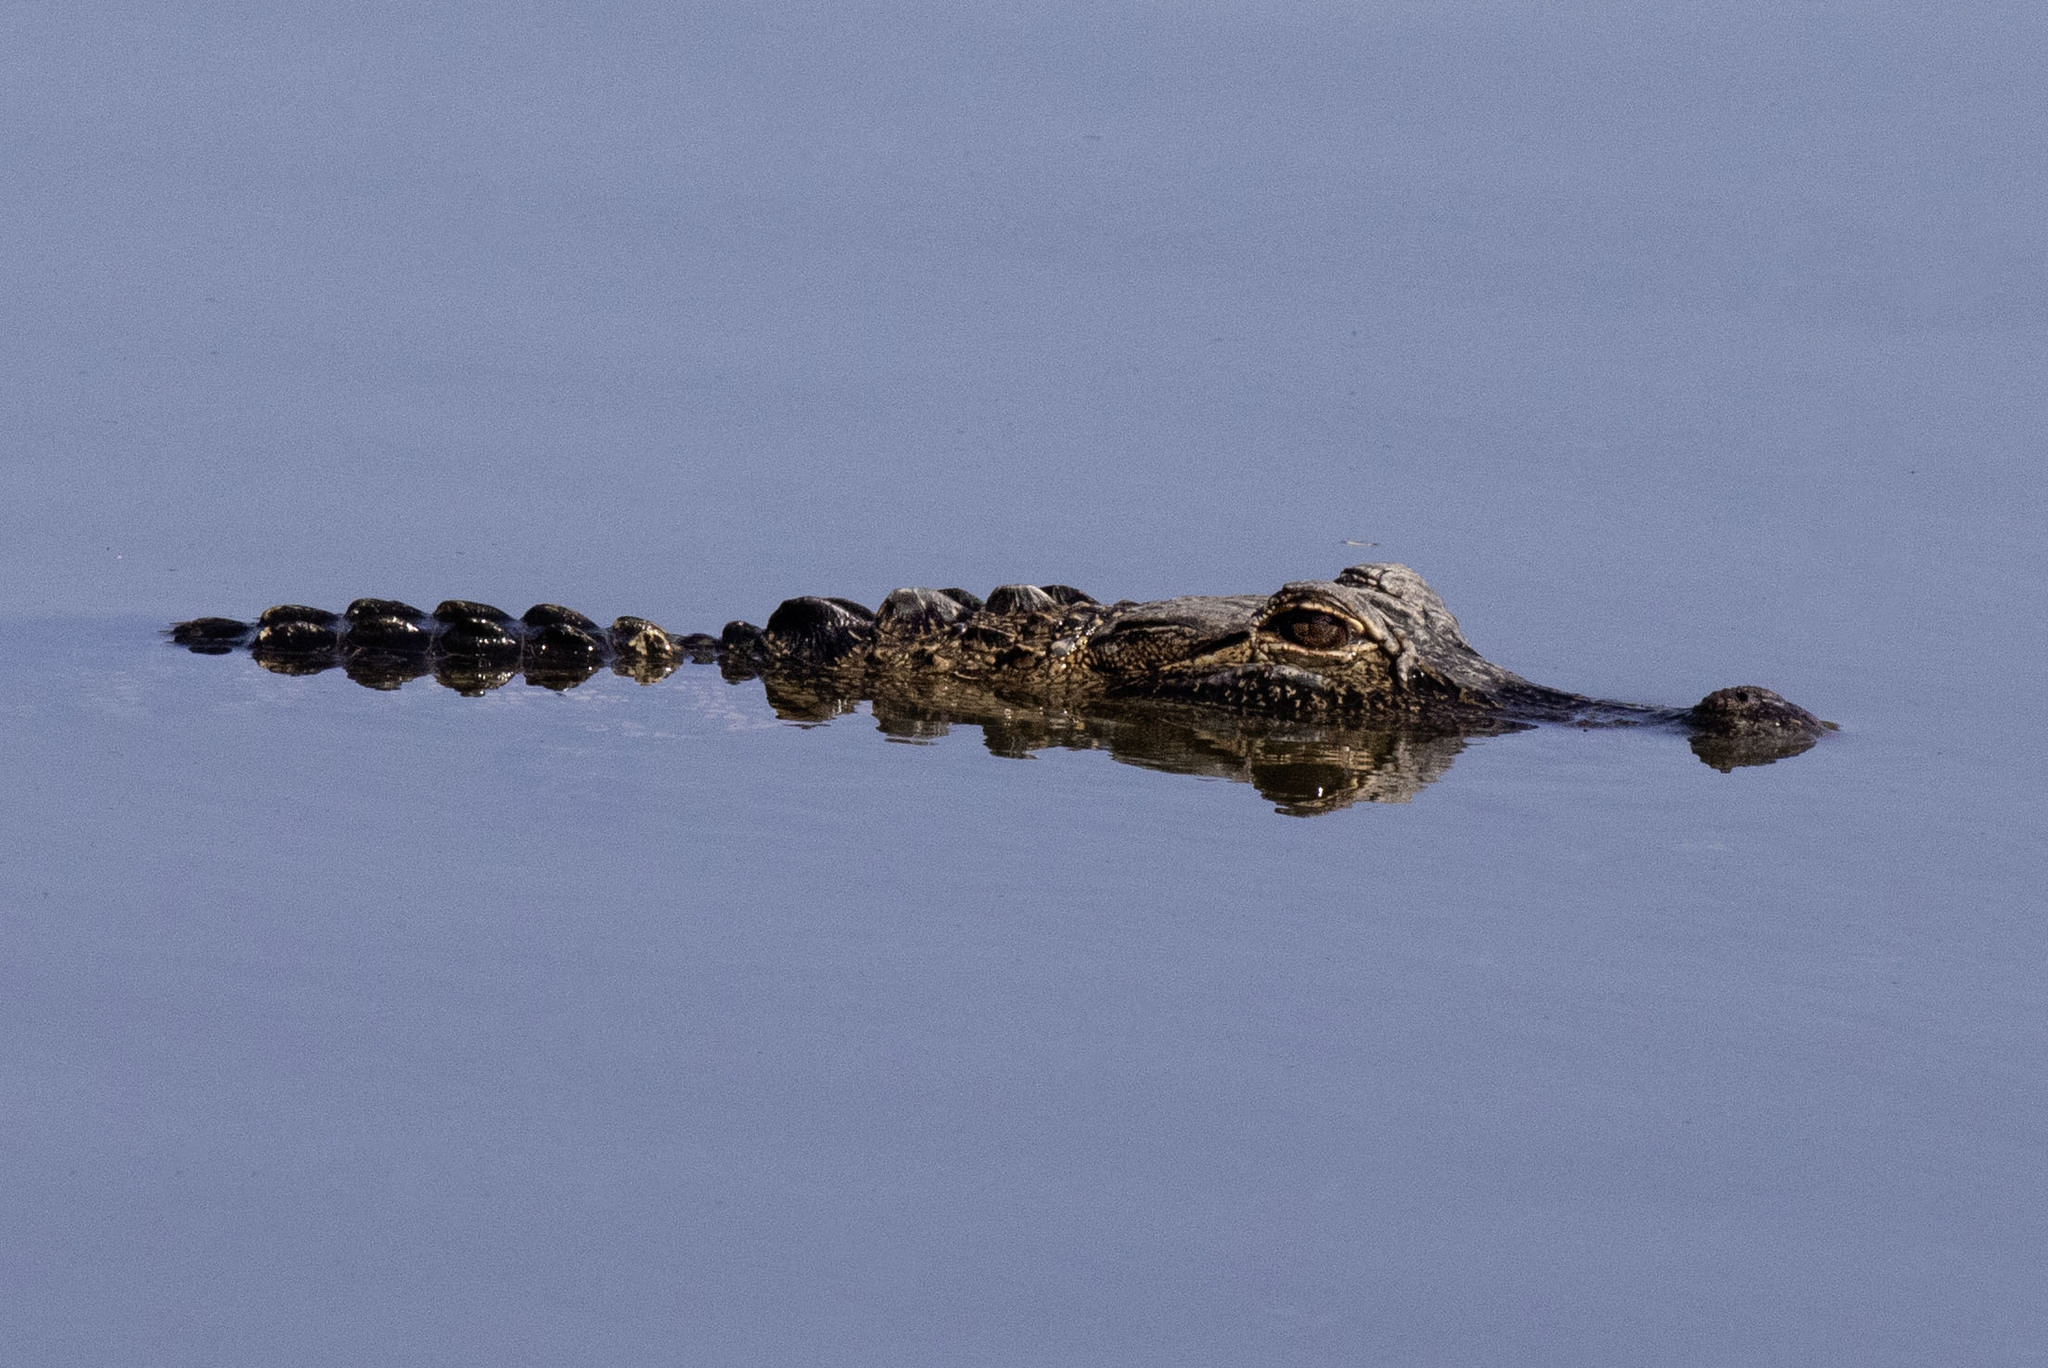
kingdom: Animalia
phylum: Chordata
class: Crocodylia
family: Alligatoridae
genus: Alligator
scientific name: Alligator mississippiensis
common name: American alligator
